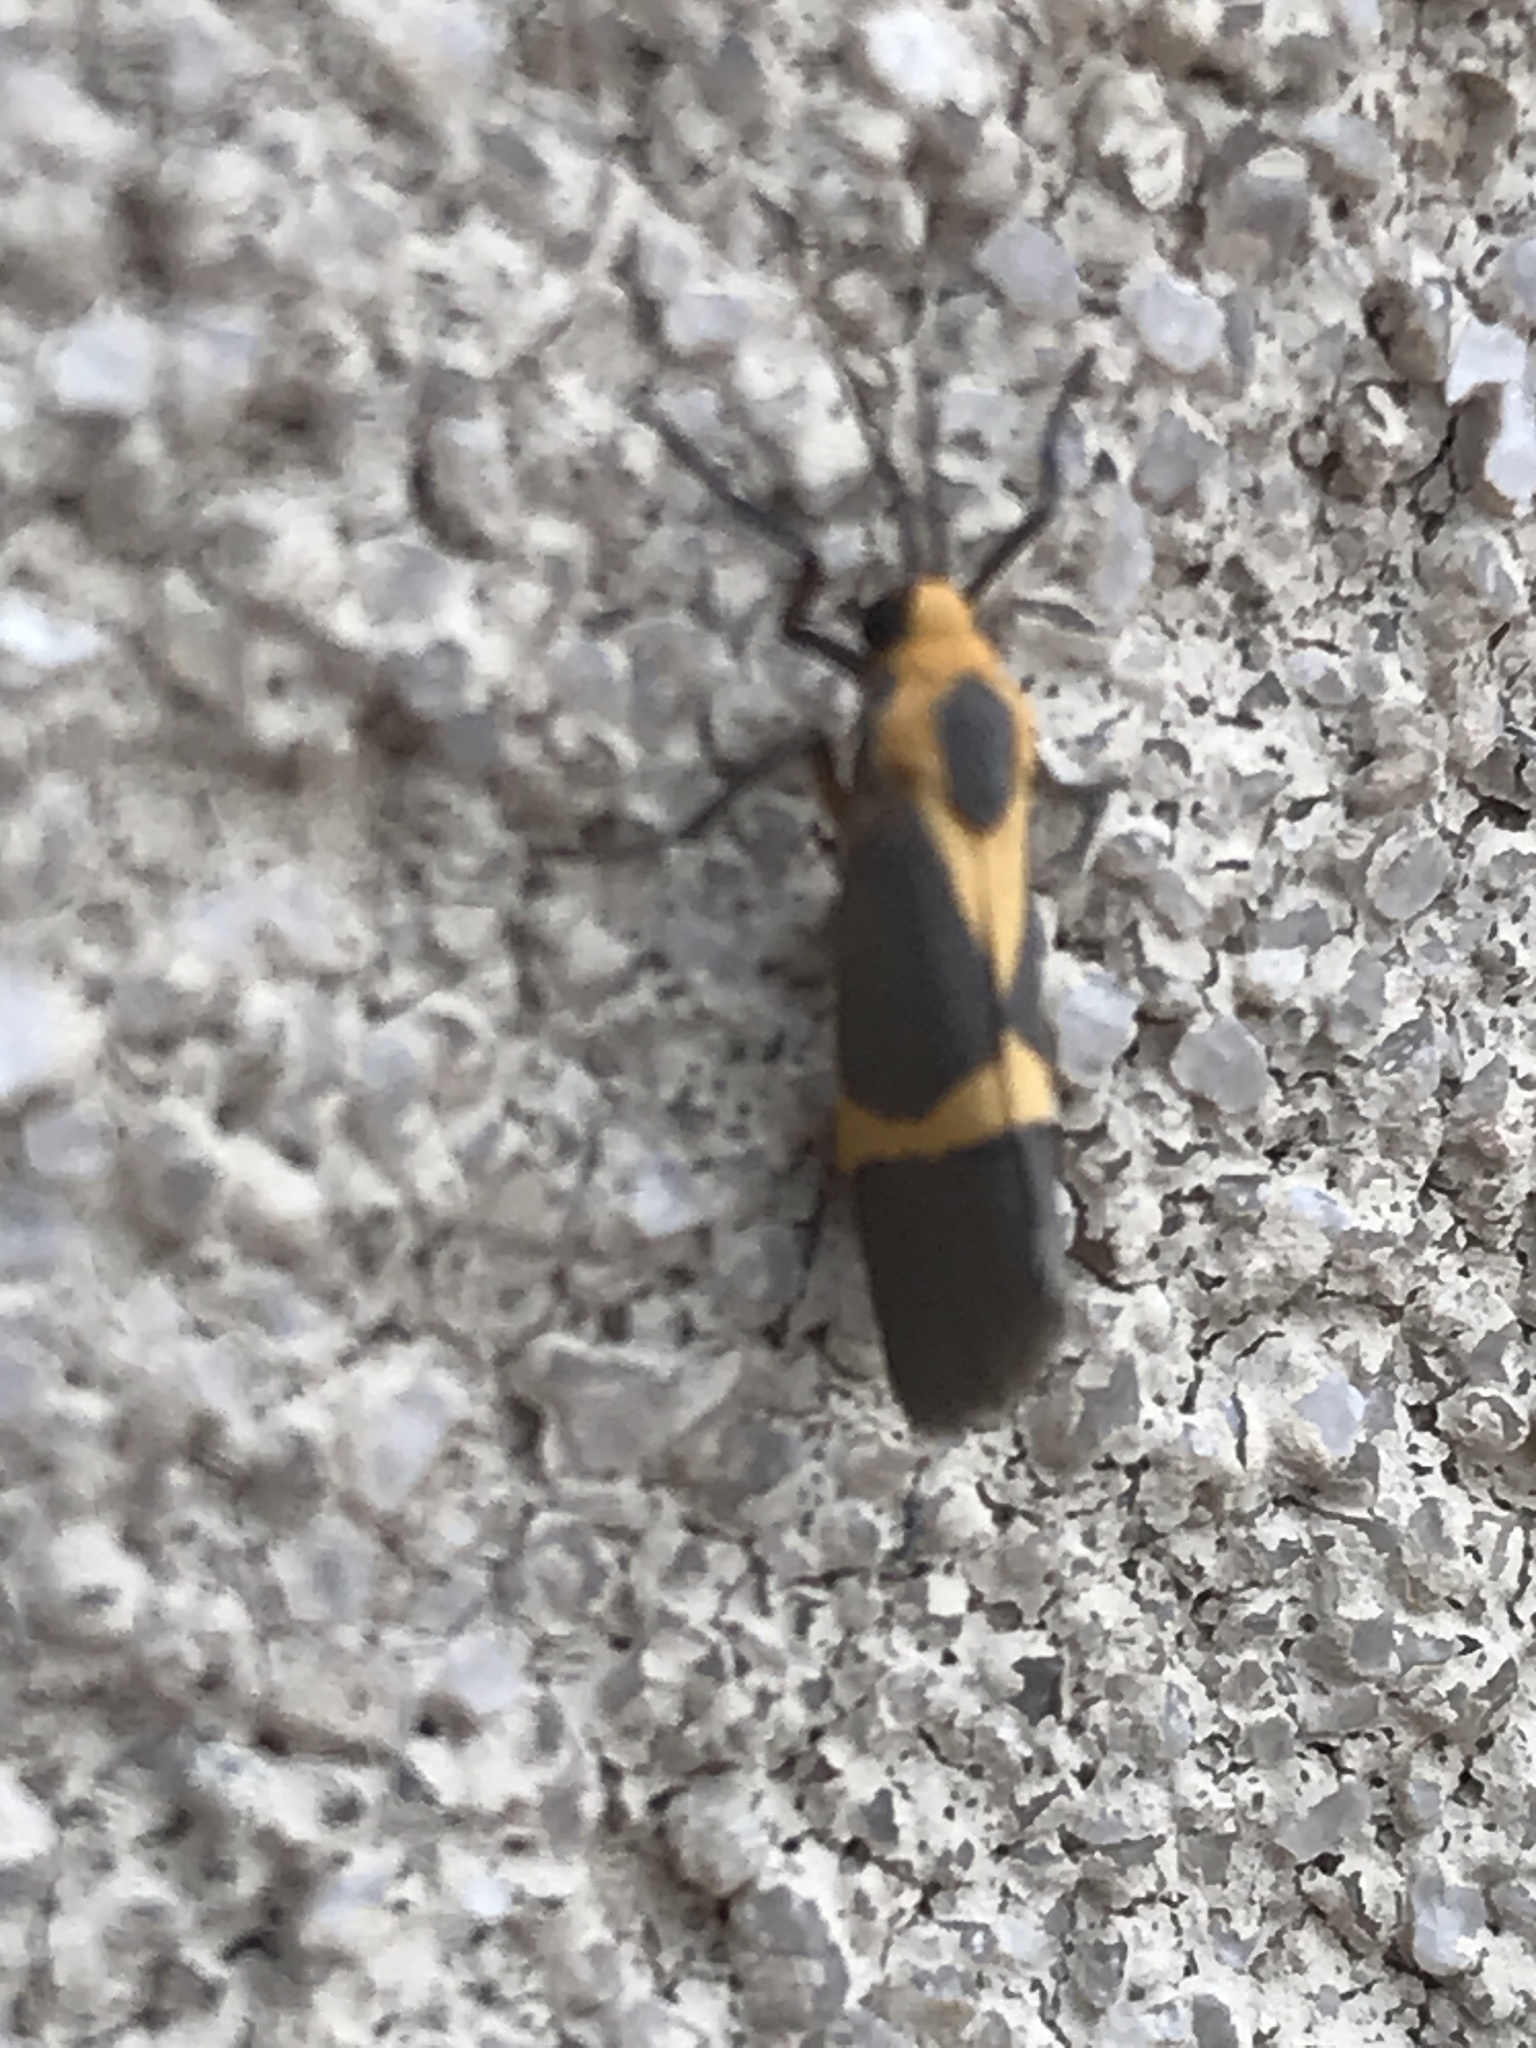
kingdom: Animalia
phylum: Arthropoda
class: Insecta
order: Lepidoptera
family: Erebidae
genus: Cisthene
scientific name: Cisthene tenuifascia
